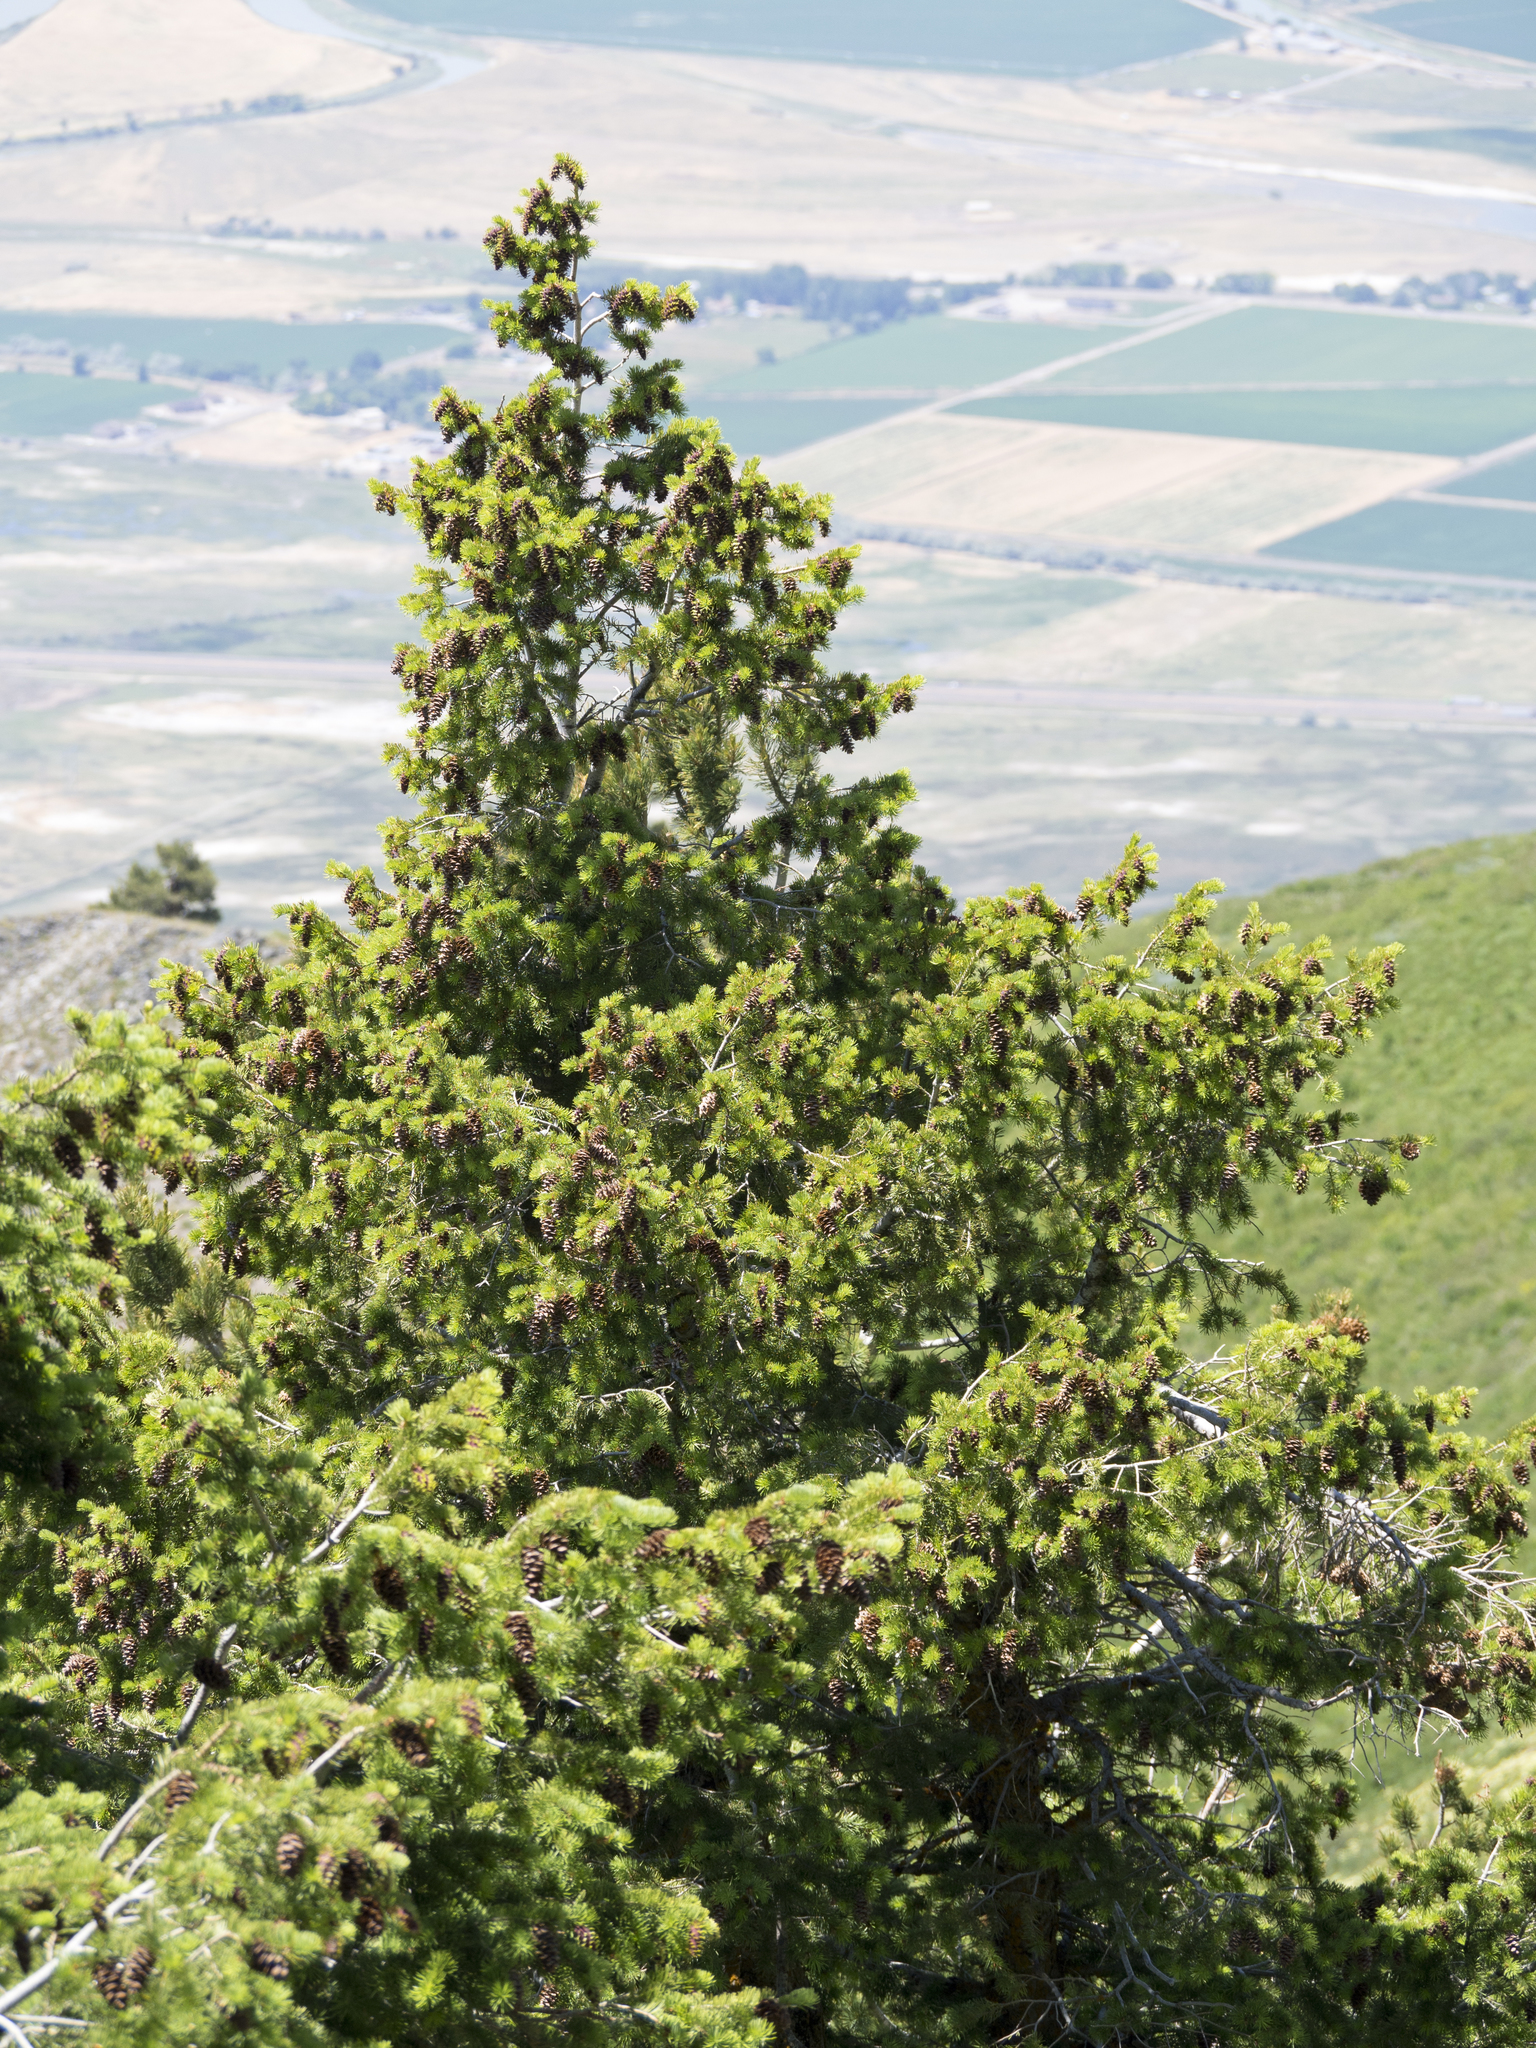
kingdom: Plantae
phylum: Tracheophyta
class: Pinopsida
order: Pinales
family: Pinaceae
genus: Pseudotsuga
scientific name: Pseudotsuga menziesii
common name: Douglas fir
